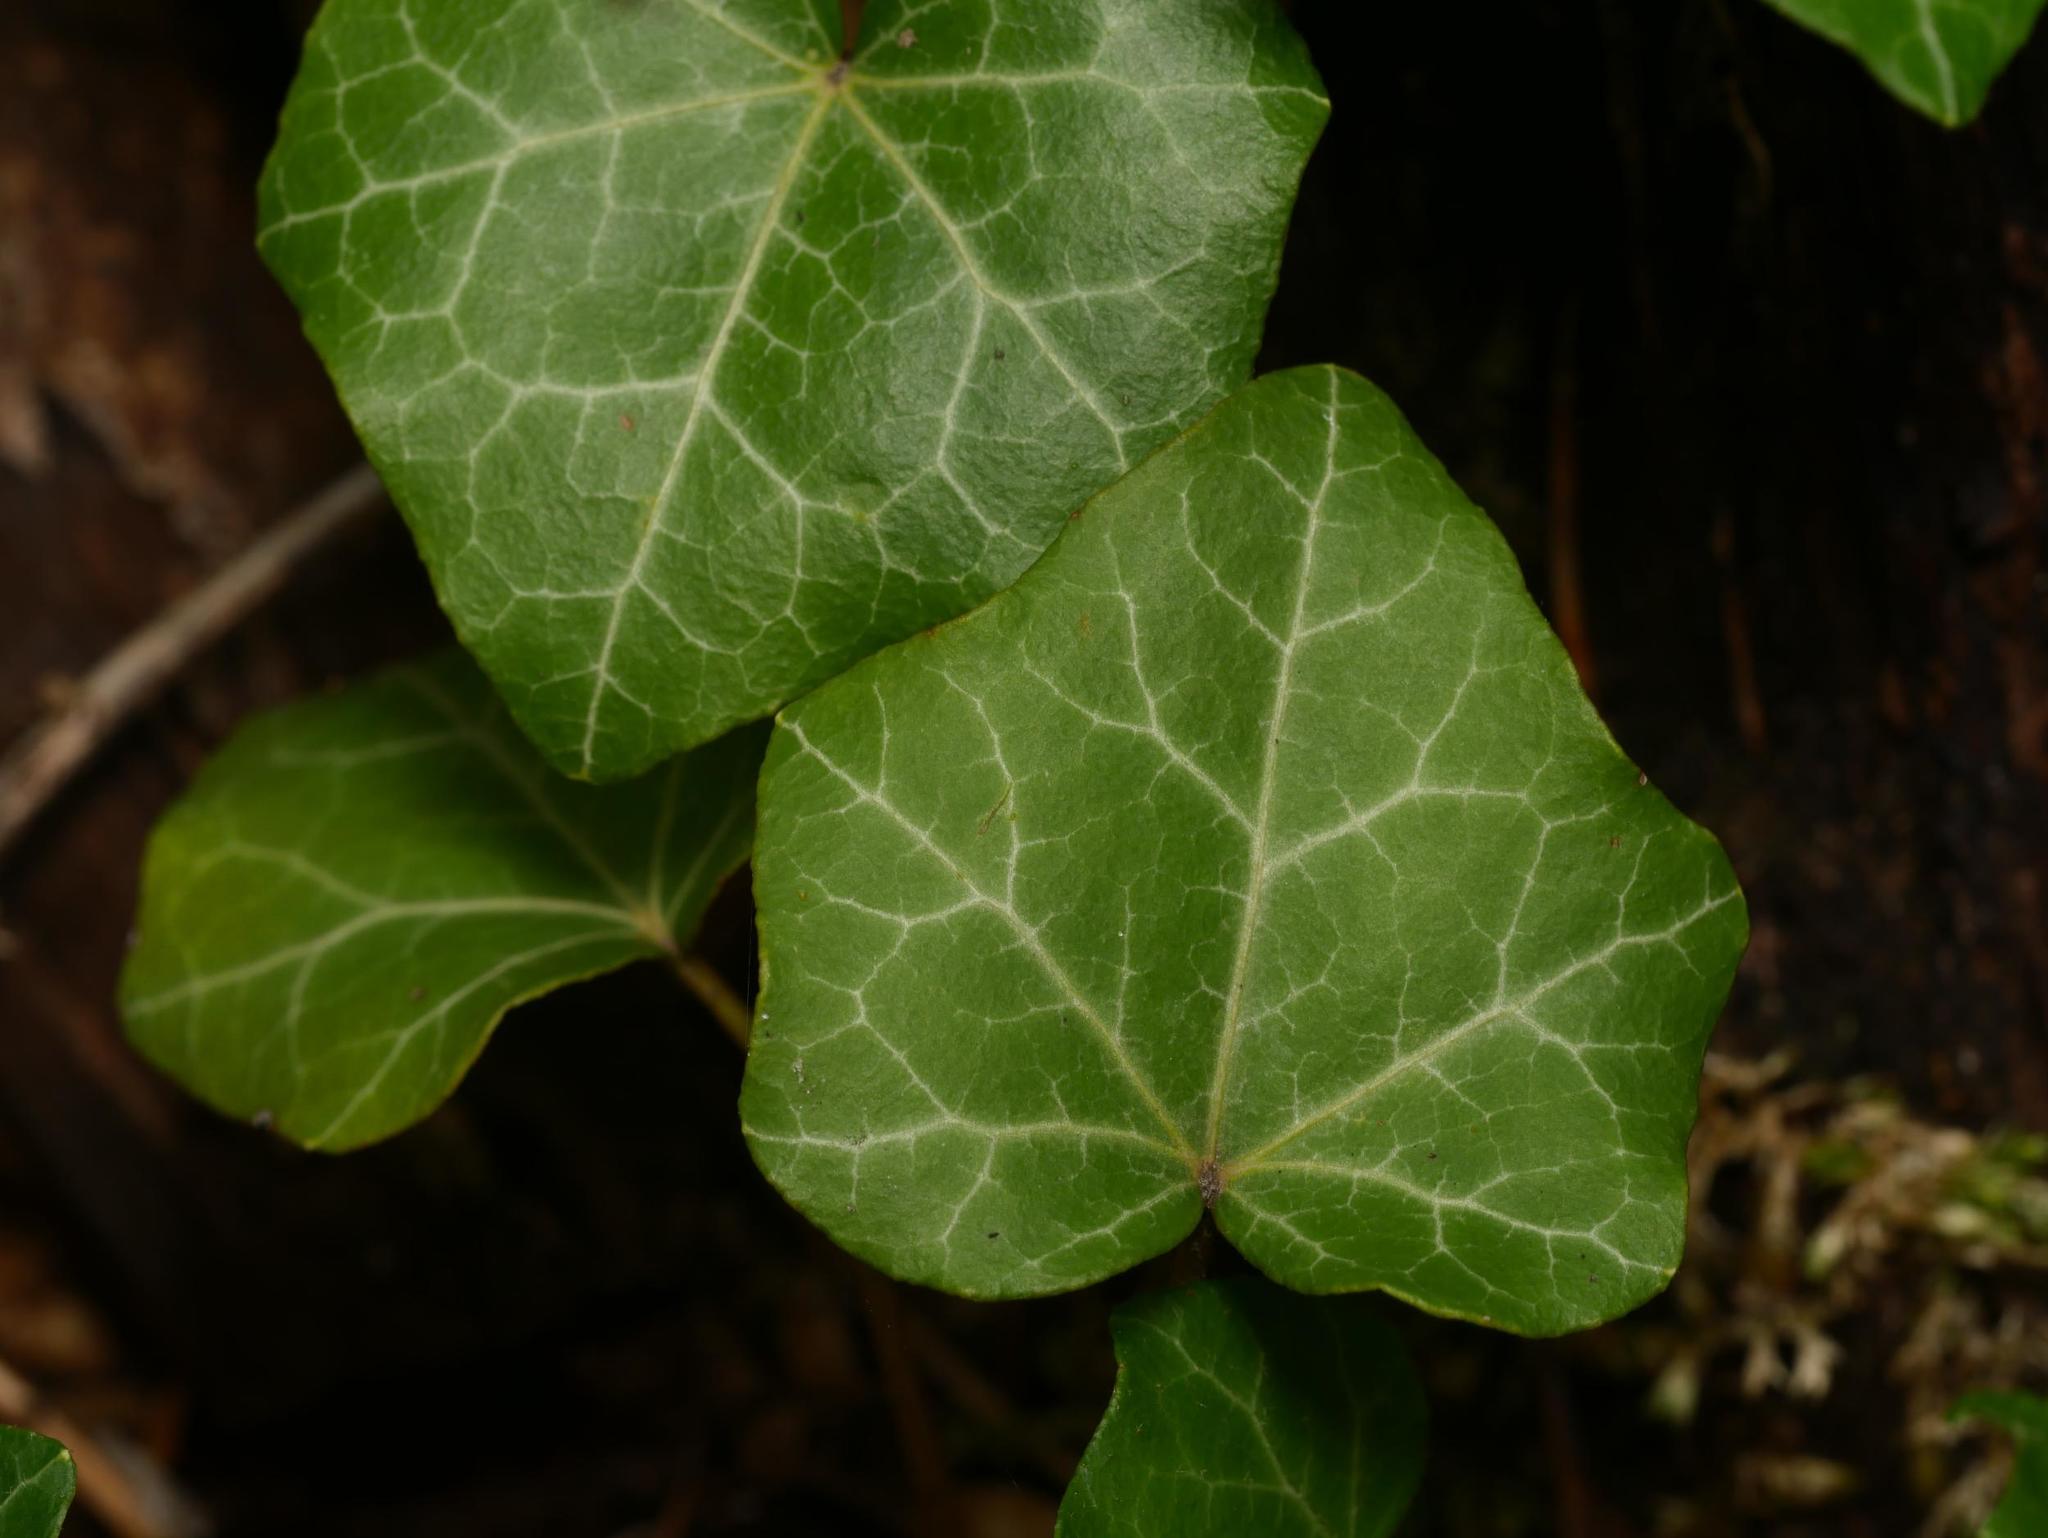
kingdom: Plantae
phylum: Tracheophyta
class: Magnoliopsida
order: Apiales
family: Araliaceae
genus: Hedera
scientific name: Hedera helix
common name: Ivy
